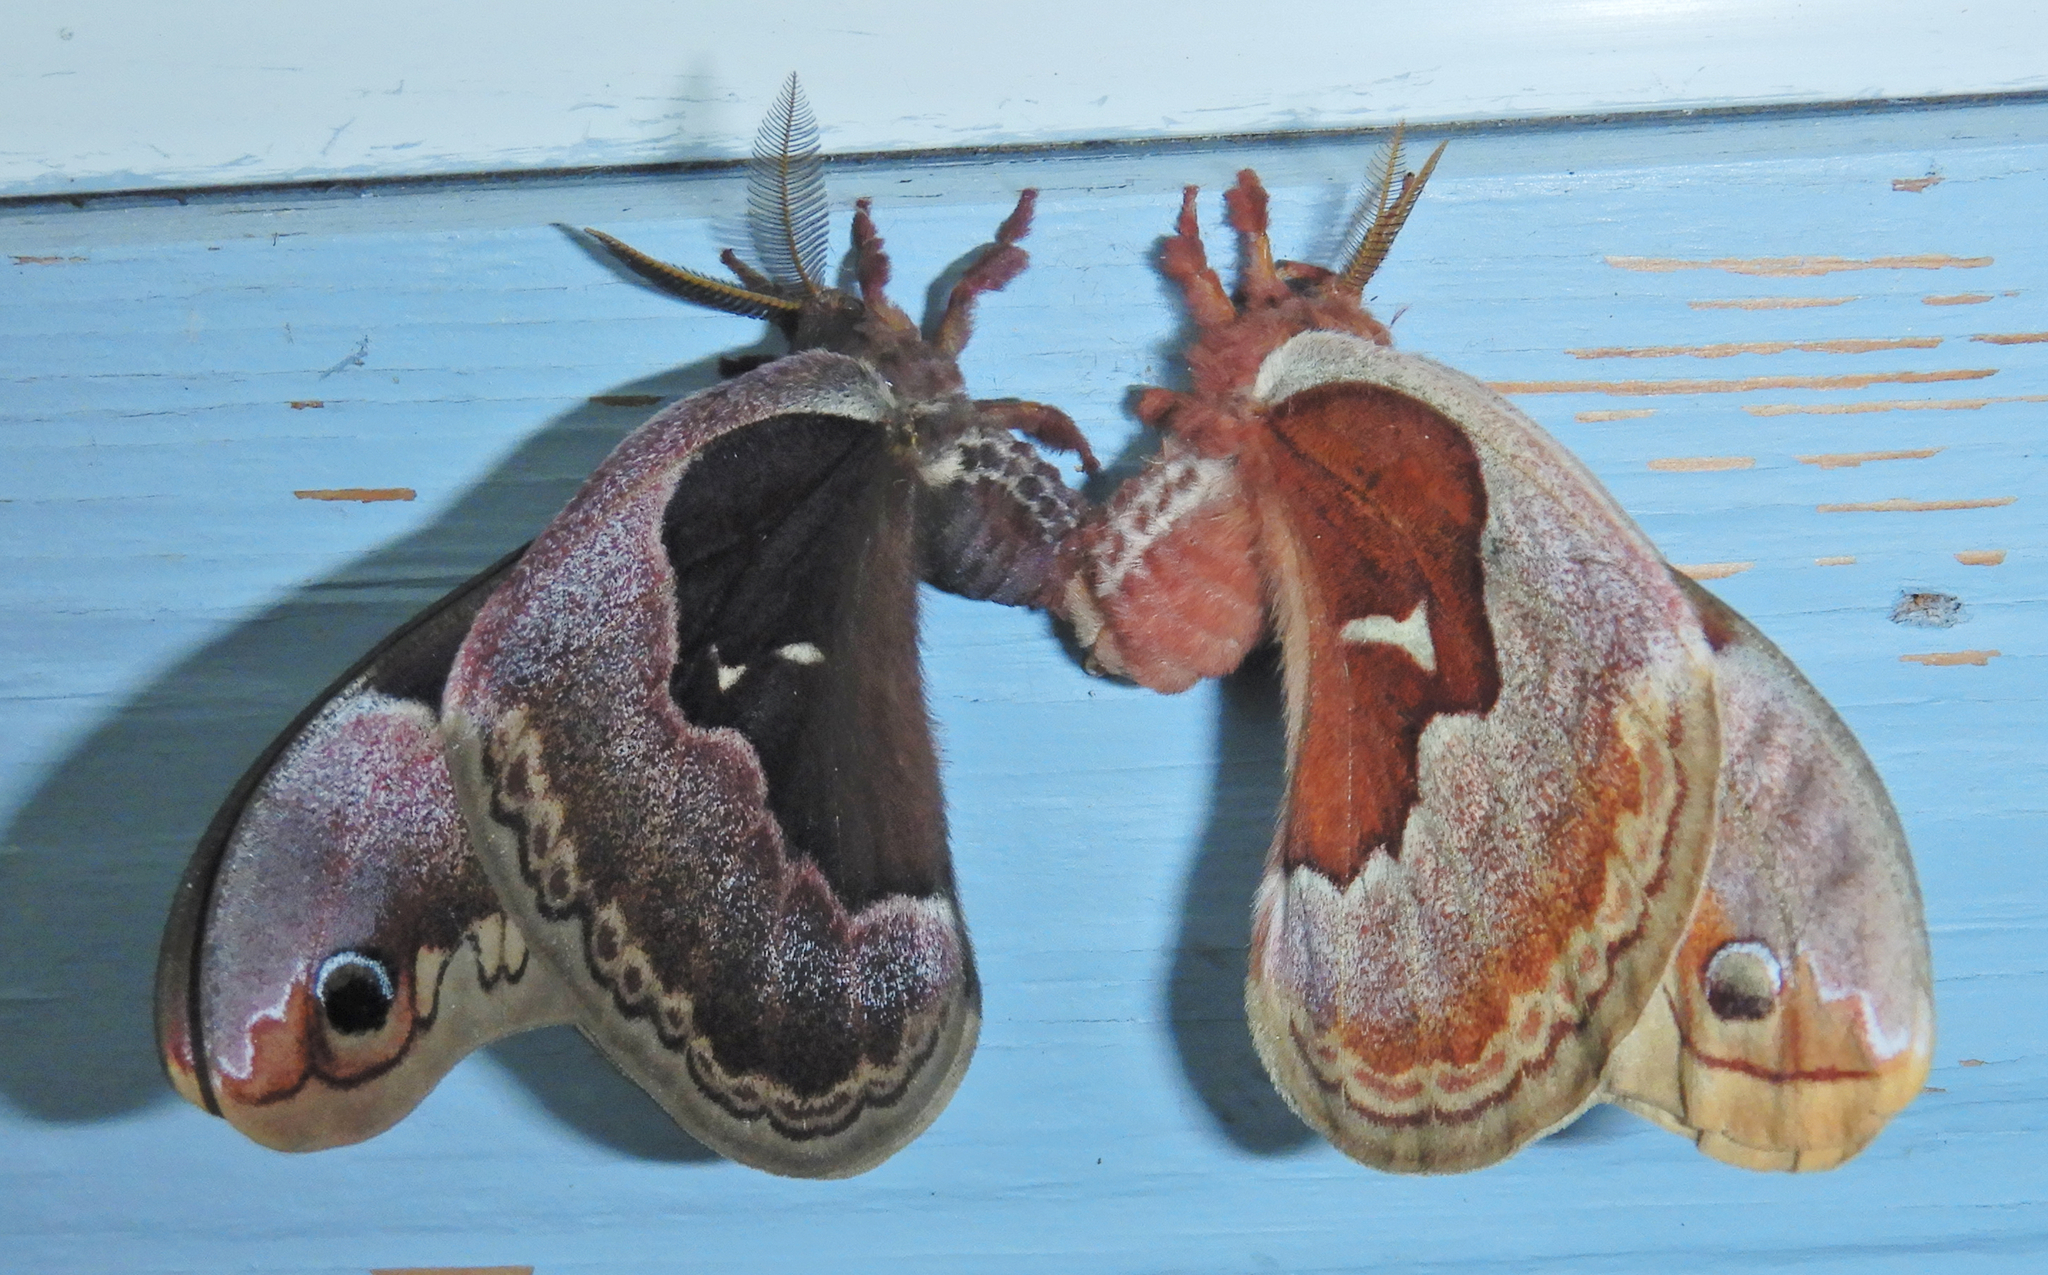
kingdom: Animalia
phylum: Arthropoda
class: Insecta
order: Lepidoptera
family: Saturniidae
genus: Callosamia
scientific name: Callosamia promethea
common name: Promethea silkmoth
